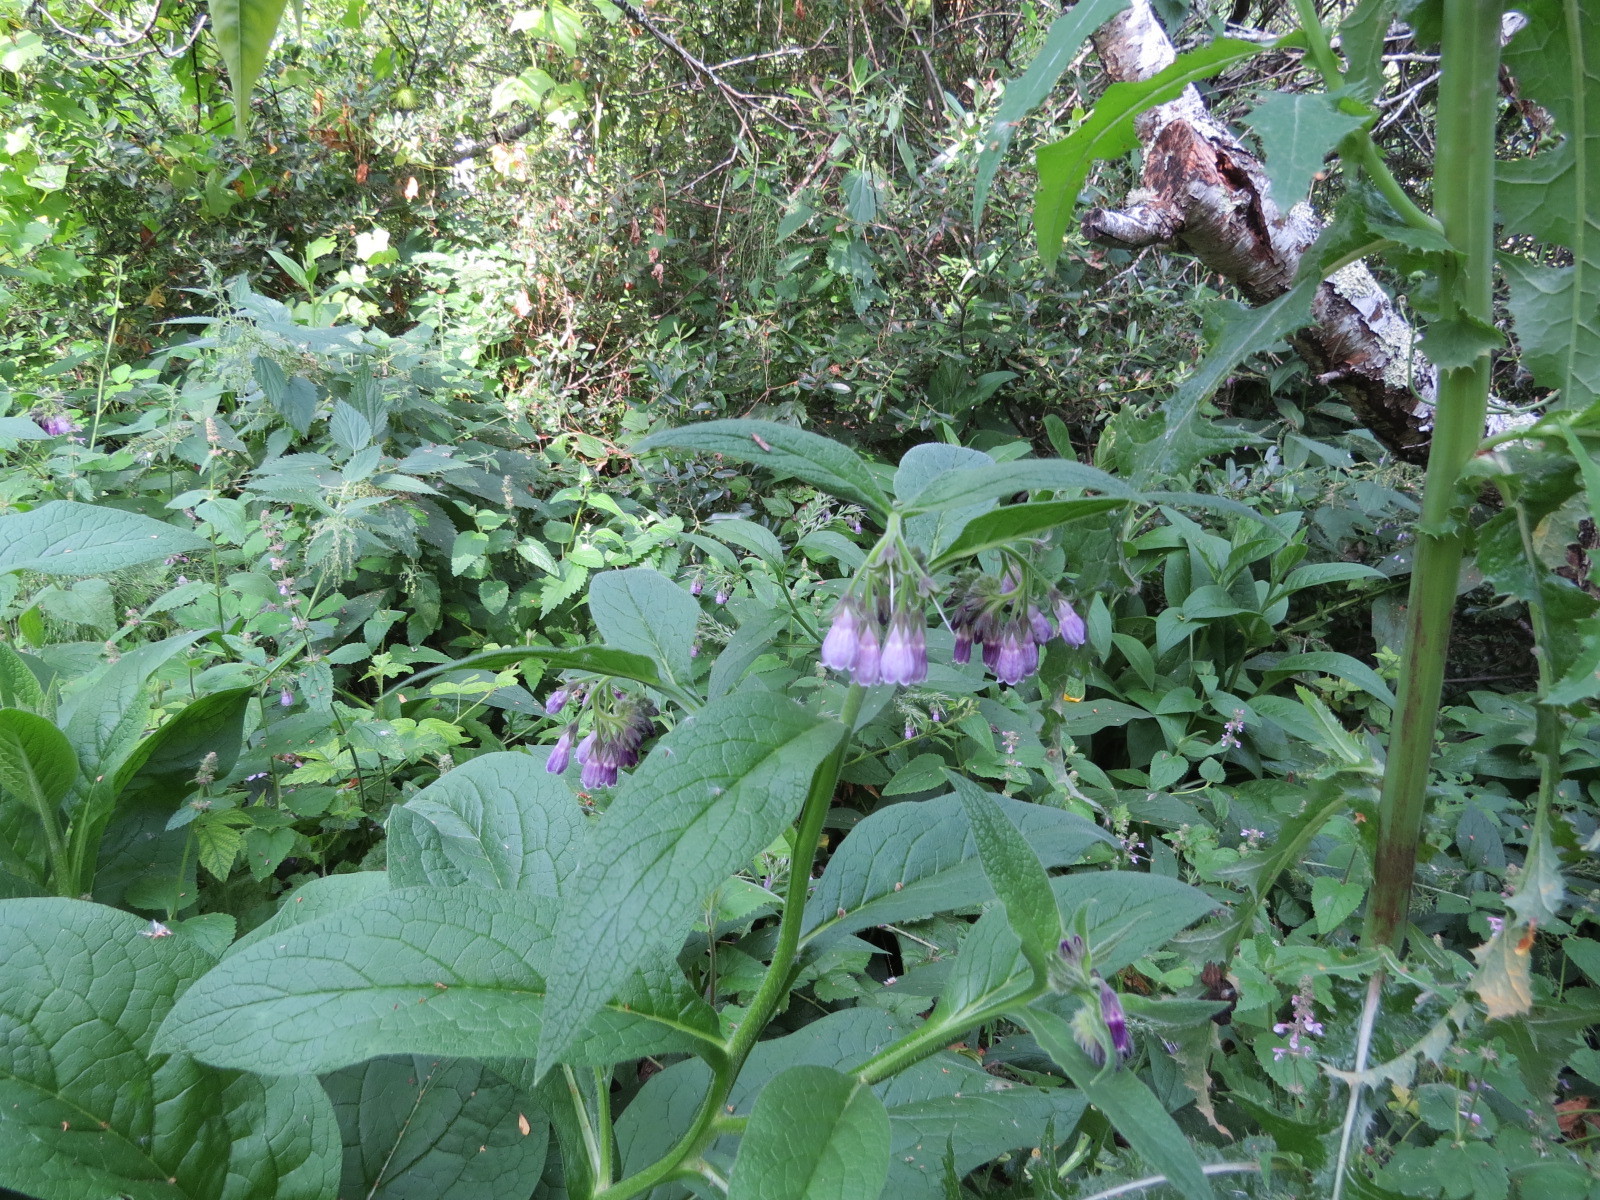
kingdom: Plantae
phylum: Tracheophyta
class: Magnoliopsida
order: Boraginales
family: Boraginaceae
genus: Symphytum
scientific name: Symphytum officinale
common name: Common comfrey
